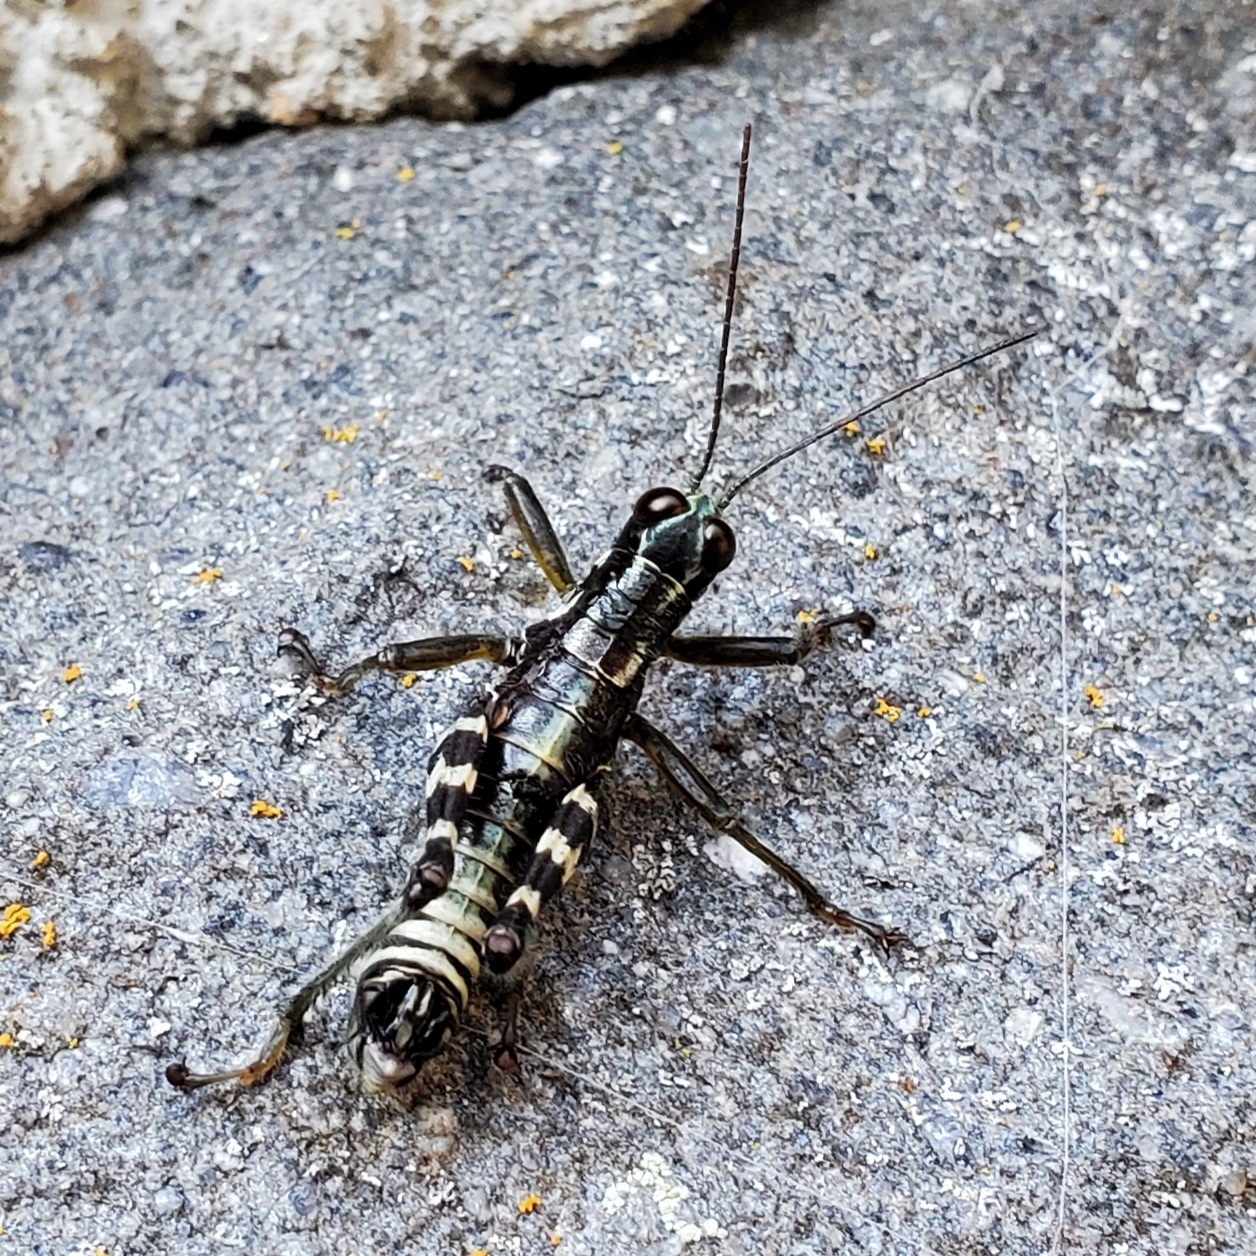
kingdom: Animalia
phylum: Arthropoda
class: Insecta
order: Orthoptera
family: Acrididae
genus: Booneacris
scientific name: Booneacris glacialis
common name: Wingless mountain grasshopper
